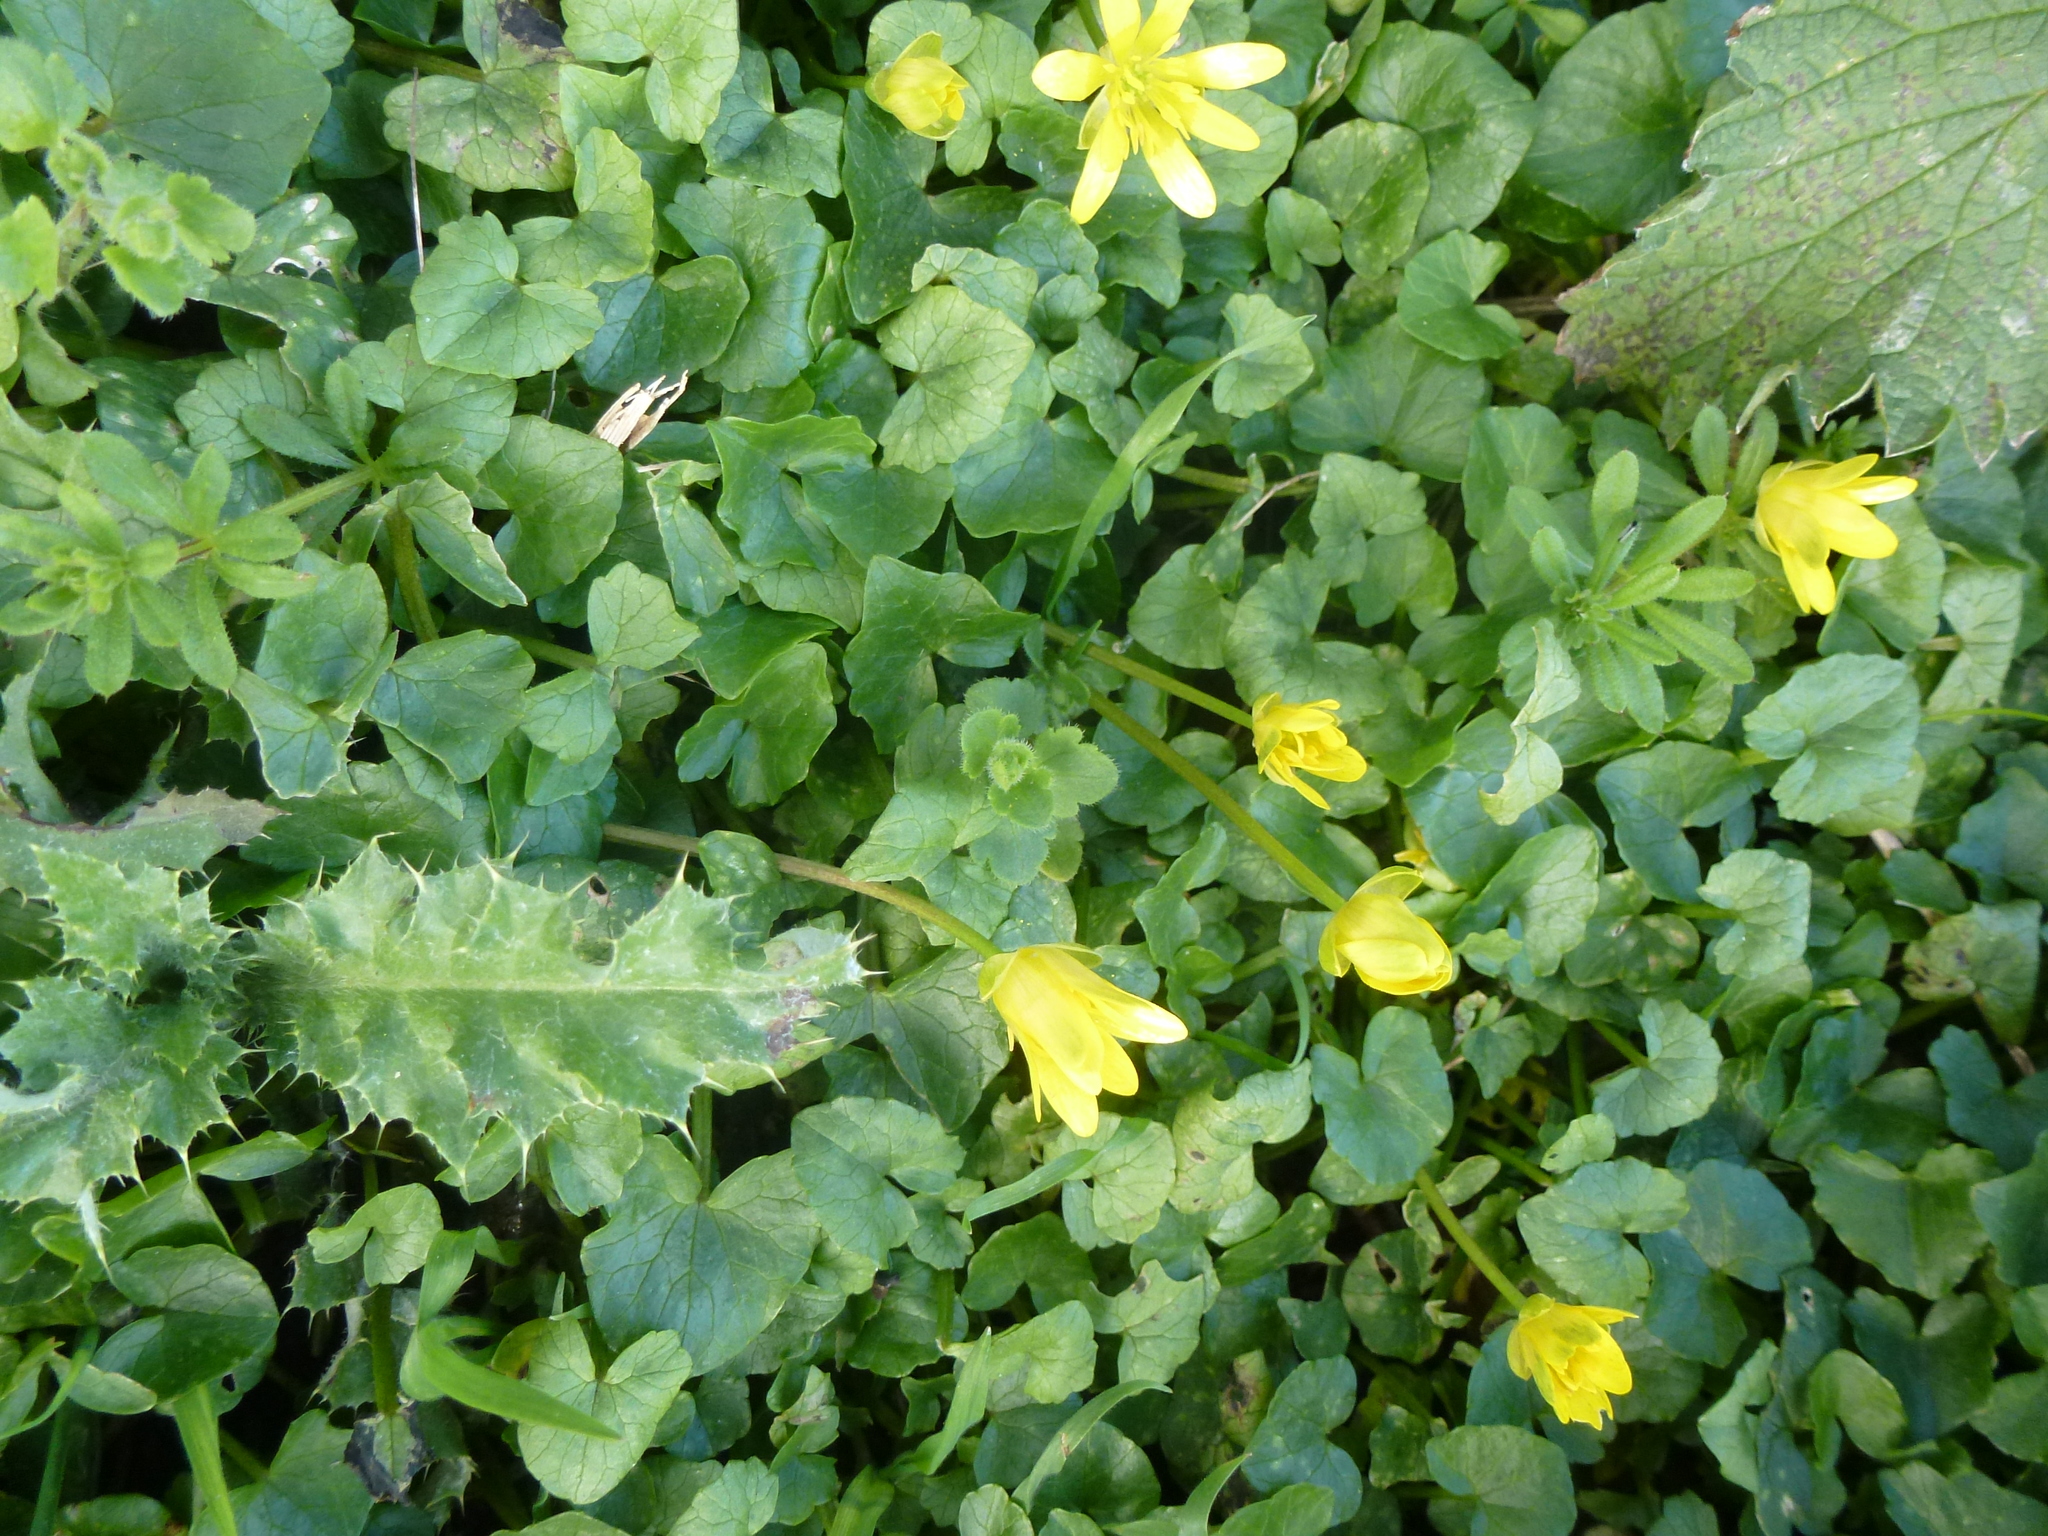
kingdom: Plantae
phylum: Tracheophyta
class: Magnoliopsida
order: Ranunculales
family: Ranunculaceae
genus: Ficaria
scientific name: Ficaria verna
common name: Lesser celandine
